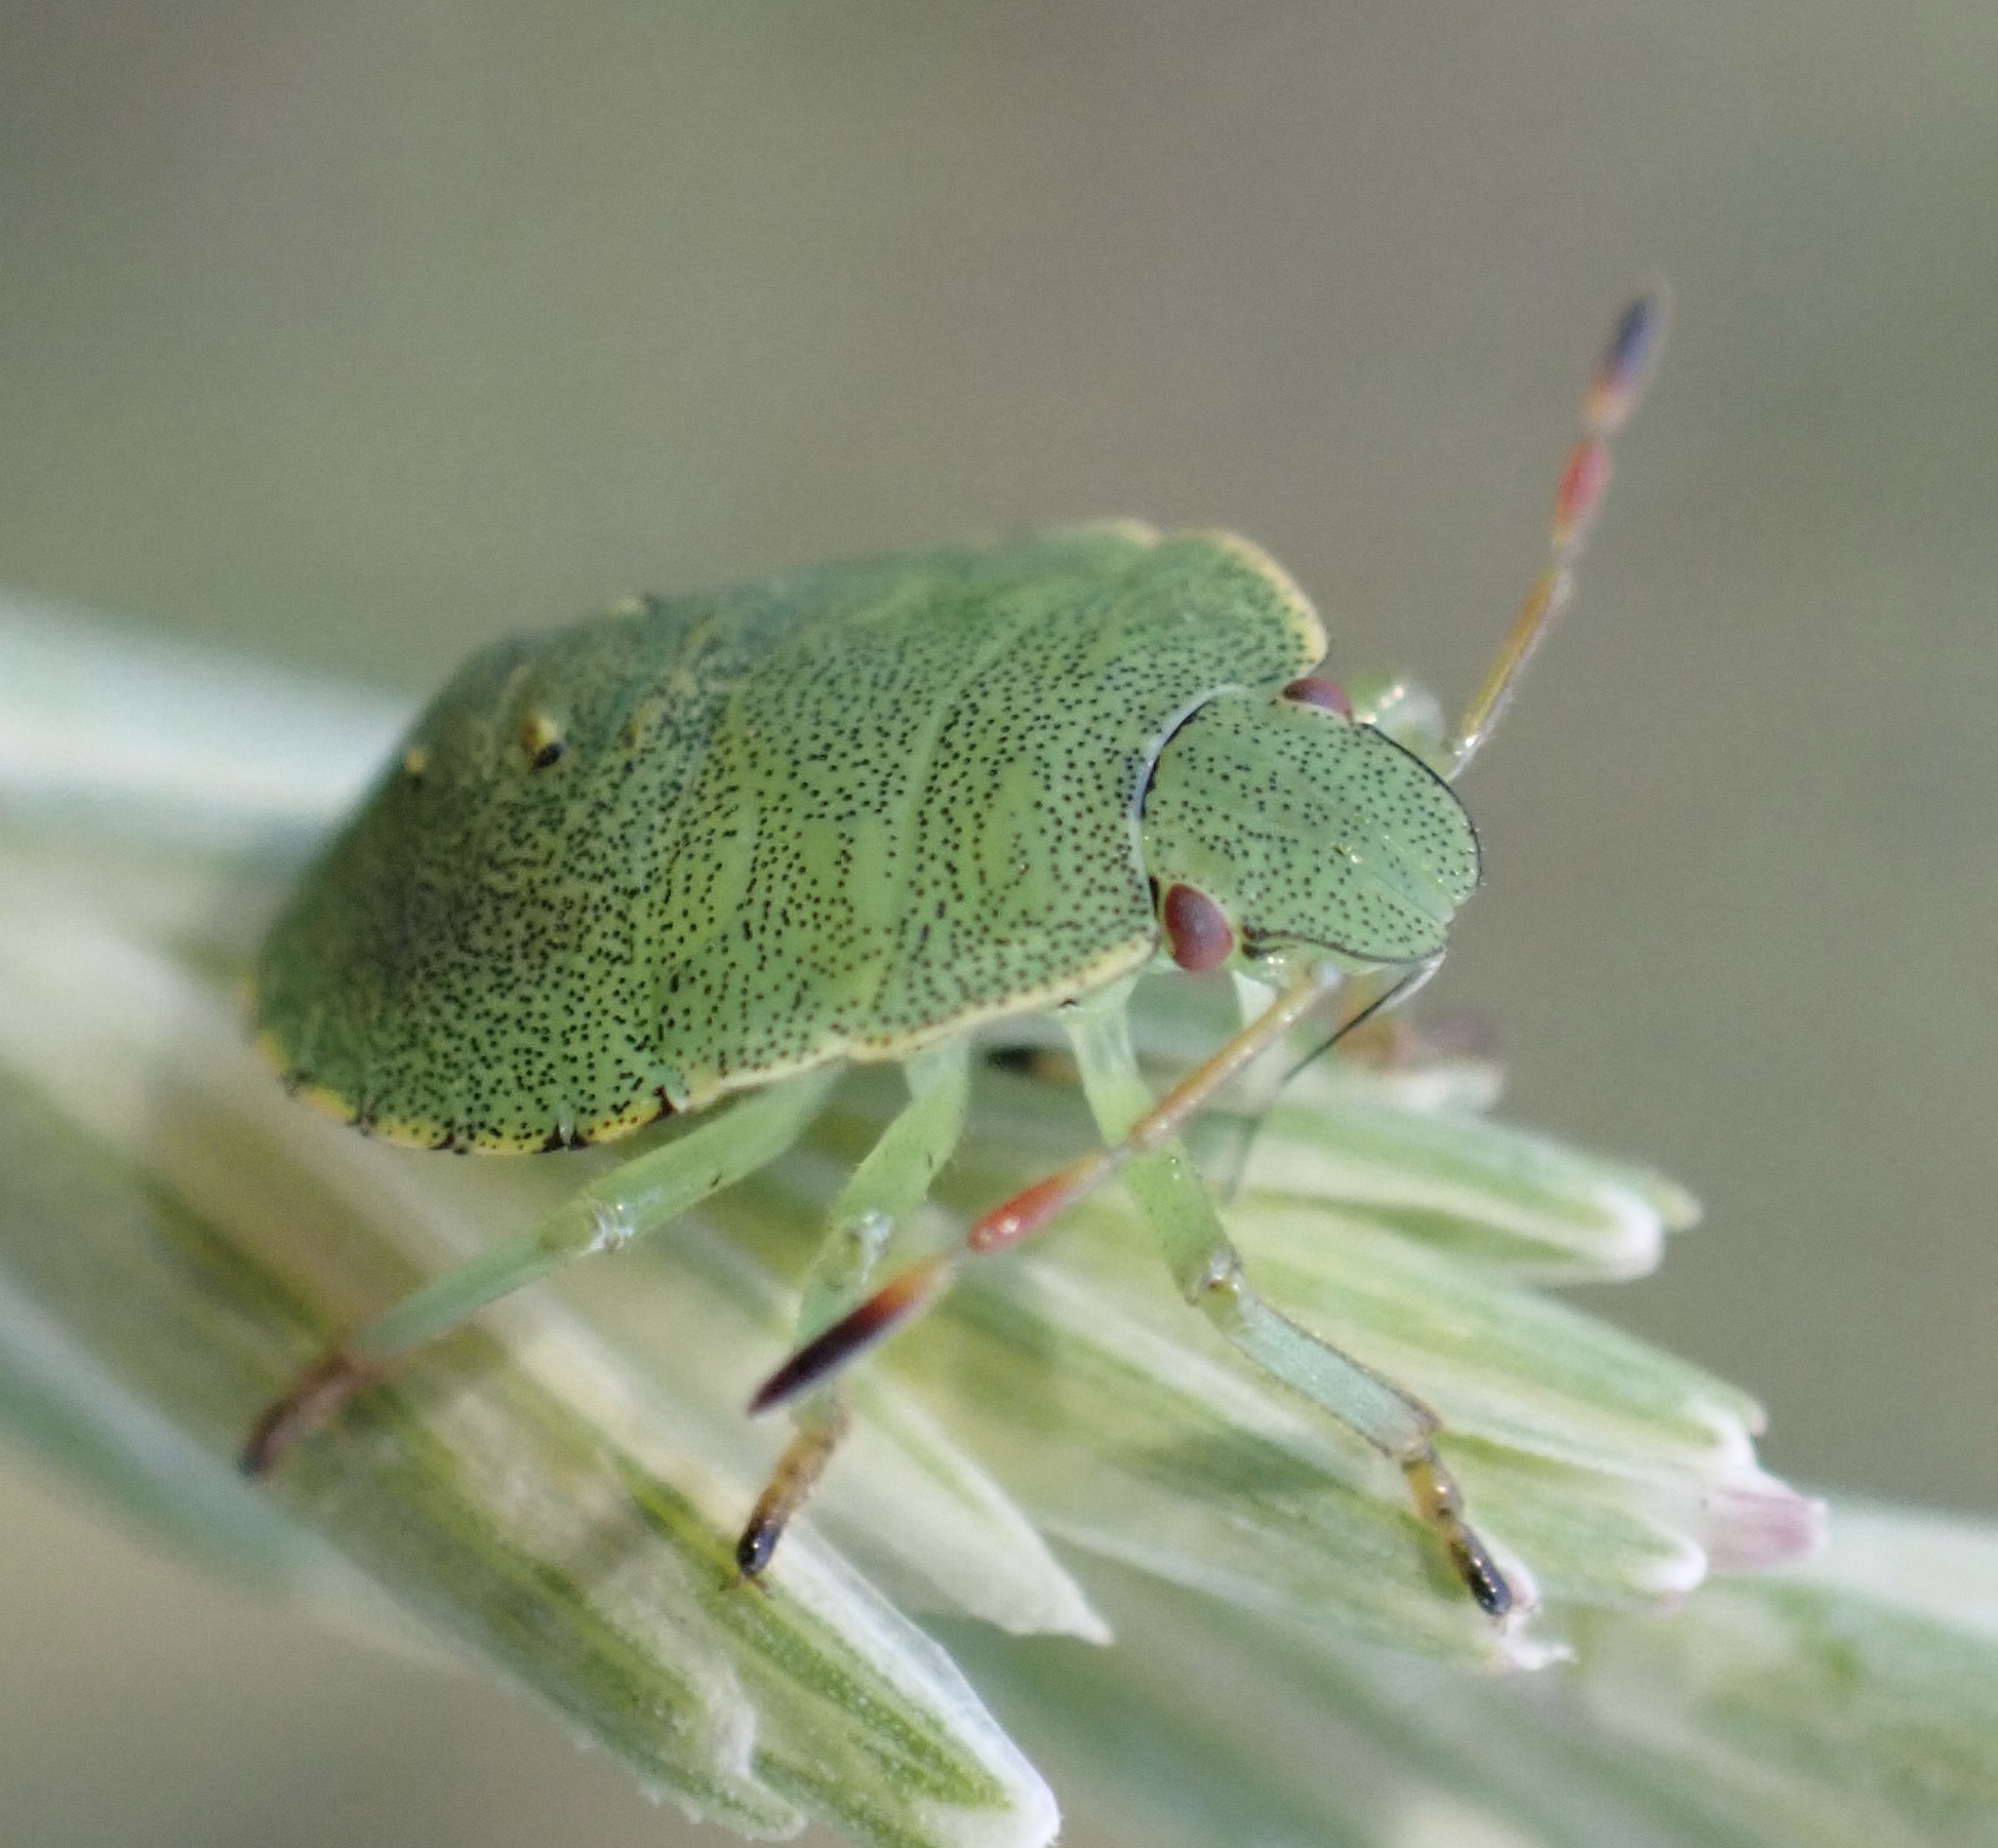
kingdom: Animalia
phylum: Arthropoda
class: Insecta
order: Hemiptera
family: Pentatomidae
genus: Palomena
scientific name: Palomena prasina
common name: Green shieldbug
